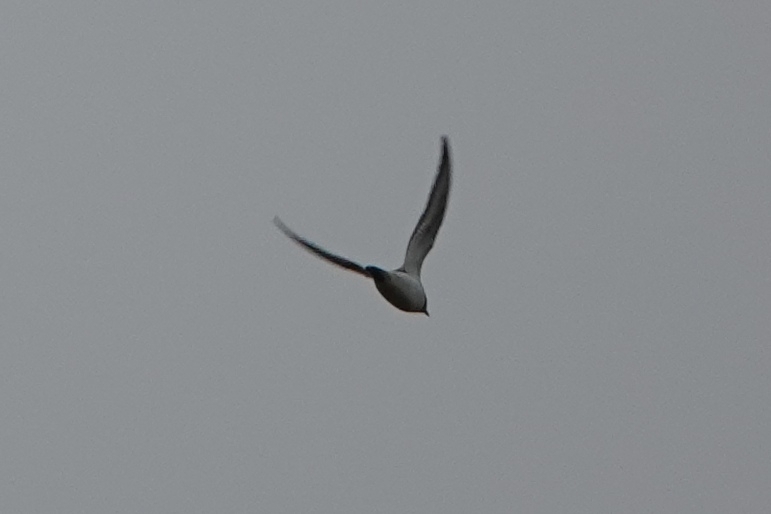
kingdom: Animalia
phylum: Chordata
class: Aves
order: Charadriiformes
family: Charadriidae
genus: Charadrius
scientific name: Charadrius hiaticula
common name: Common ringed plover
